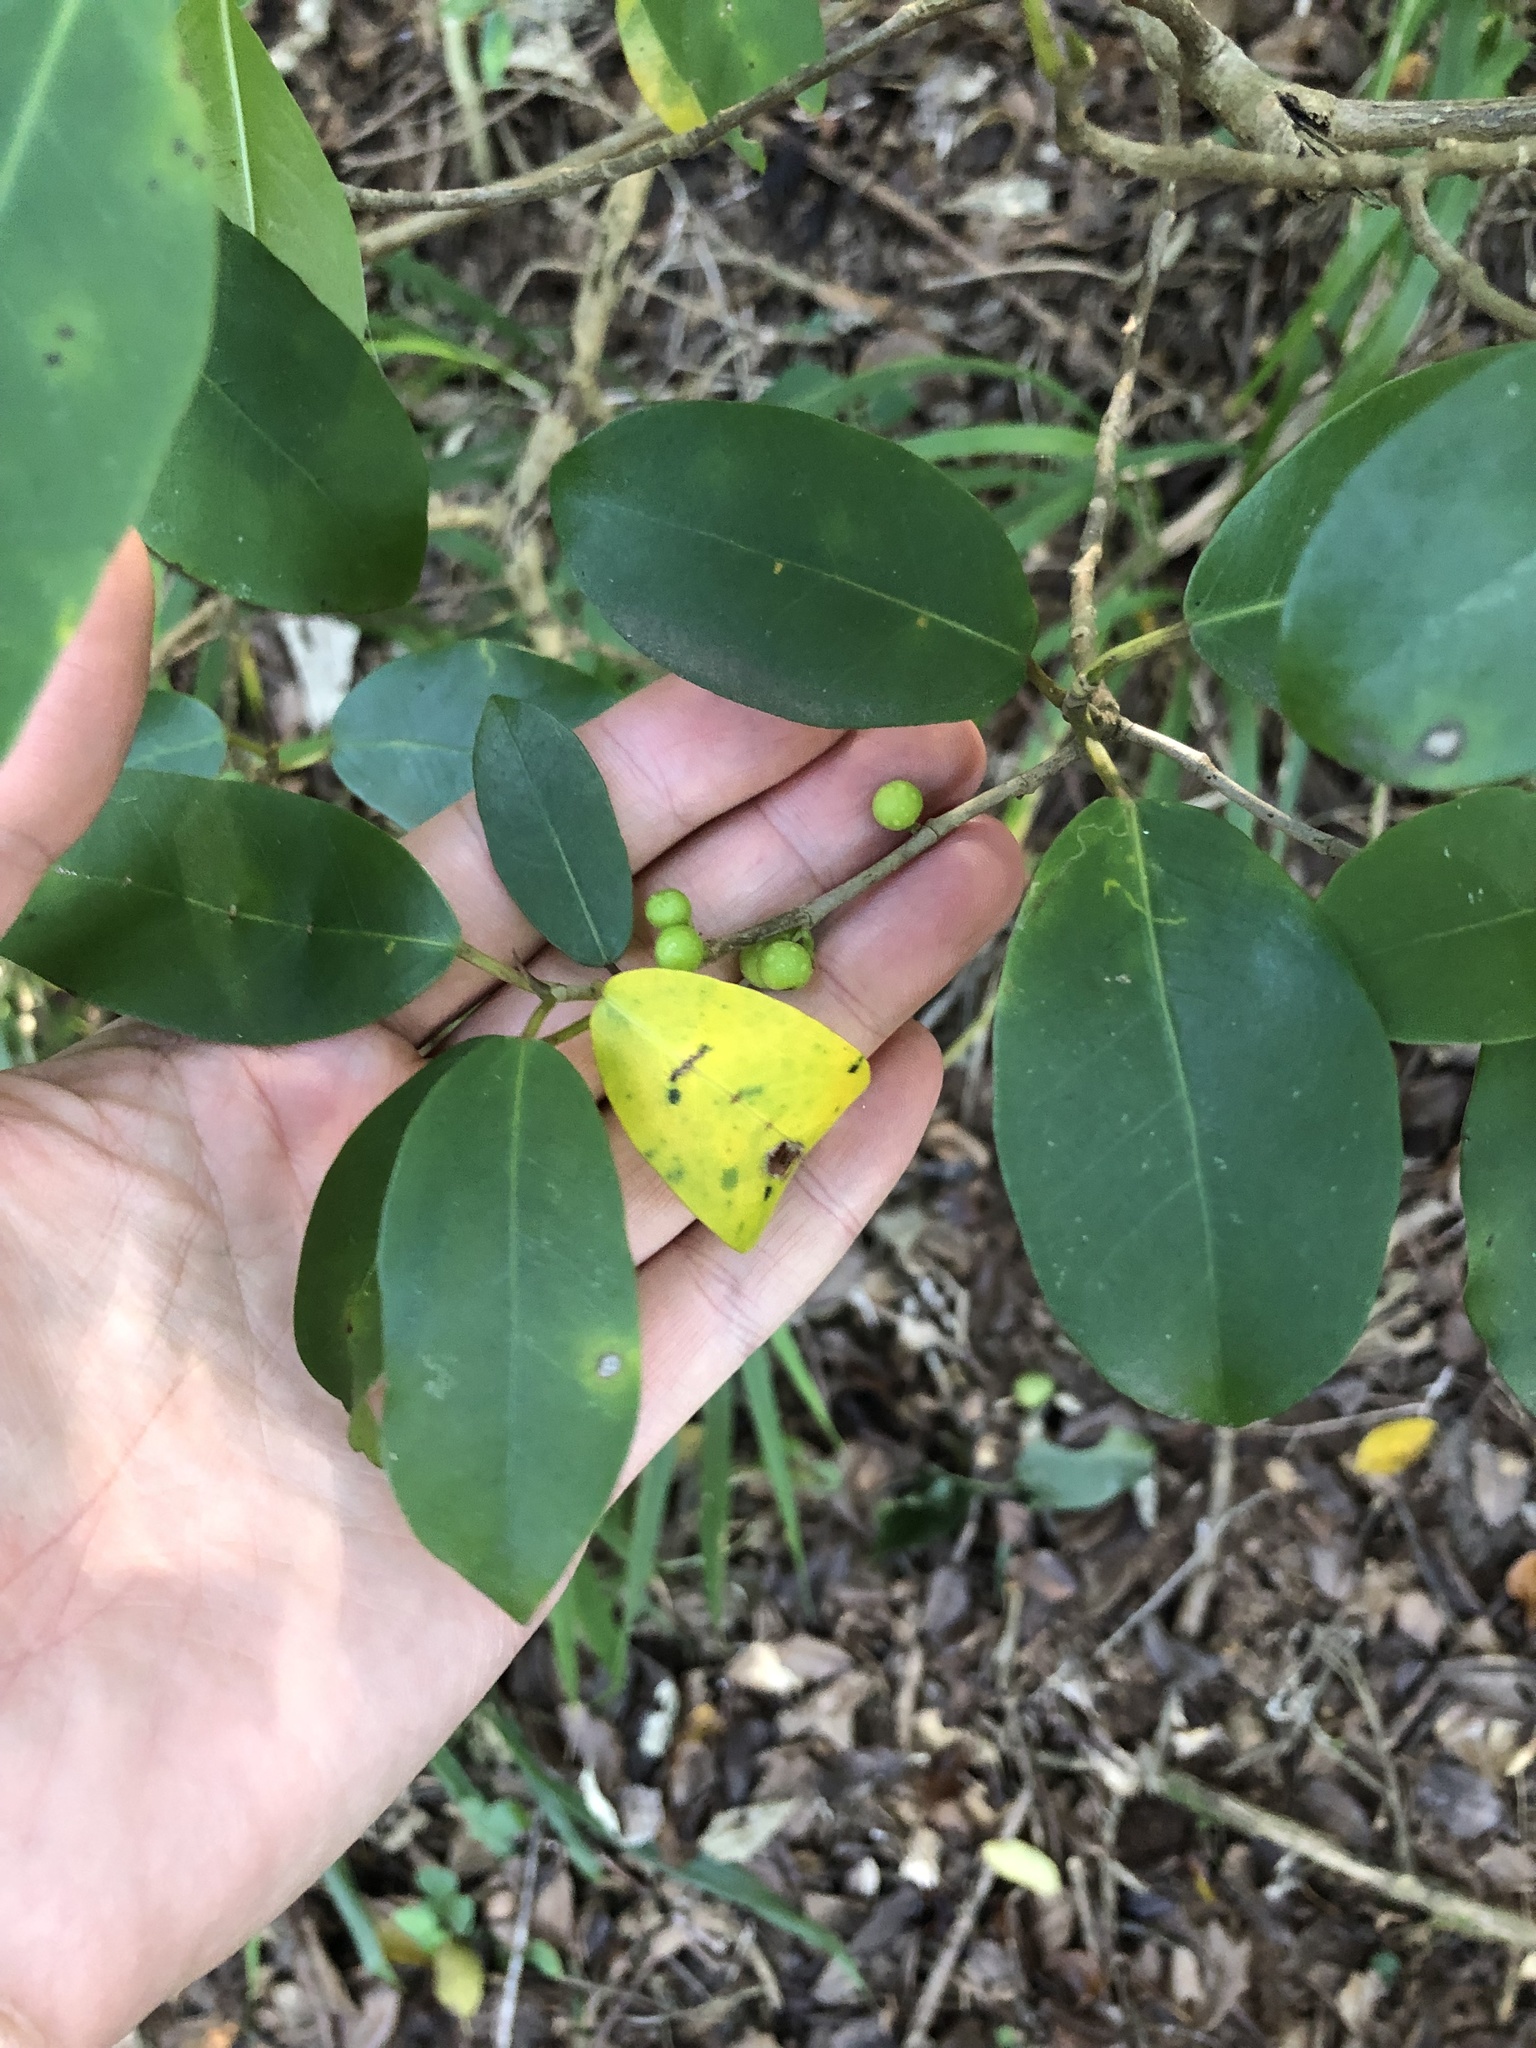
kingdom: Plantae
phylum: Tracheophyta
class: Magnoliopsida
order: Rosales
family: Moraceae
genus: Ficus
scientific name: Ficus natalensis
